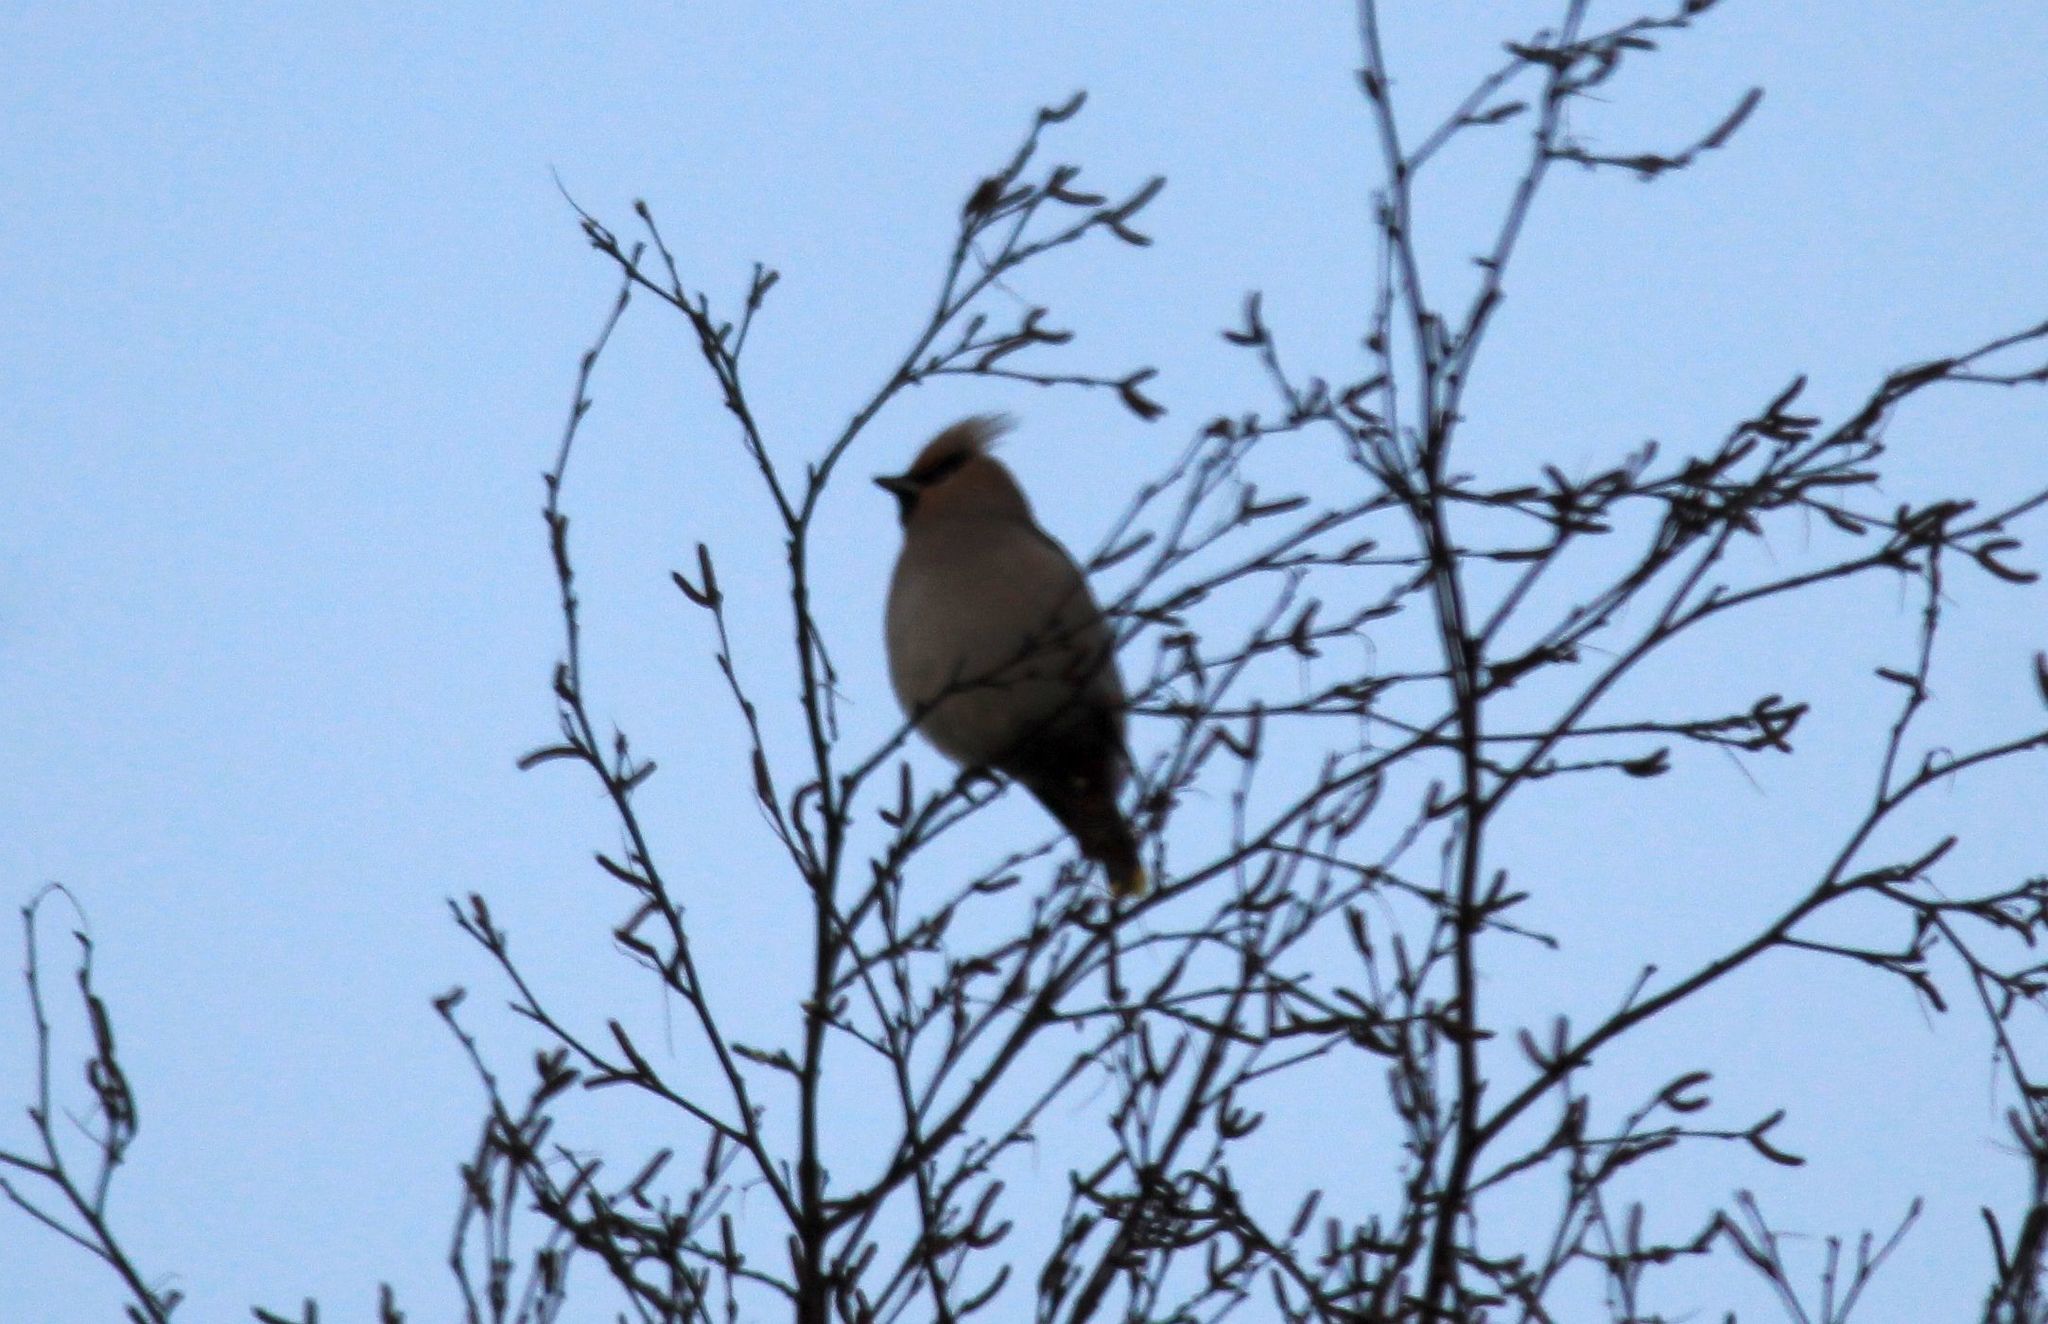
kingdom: Animalia
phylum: Chordata
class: Aves
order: Passeriformes
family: Bombycillidae
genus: Bombycilla
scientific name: Bombycilla garrulus
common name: Bohemian waxwing
